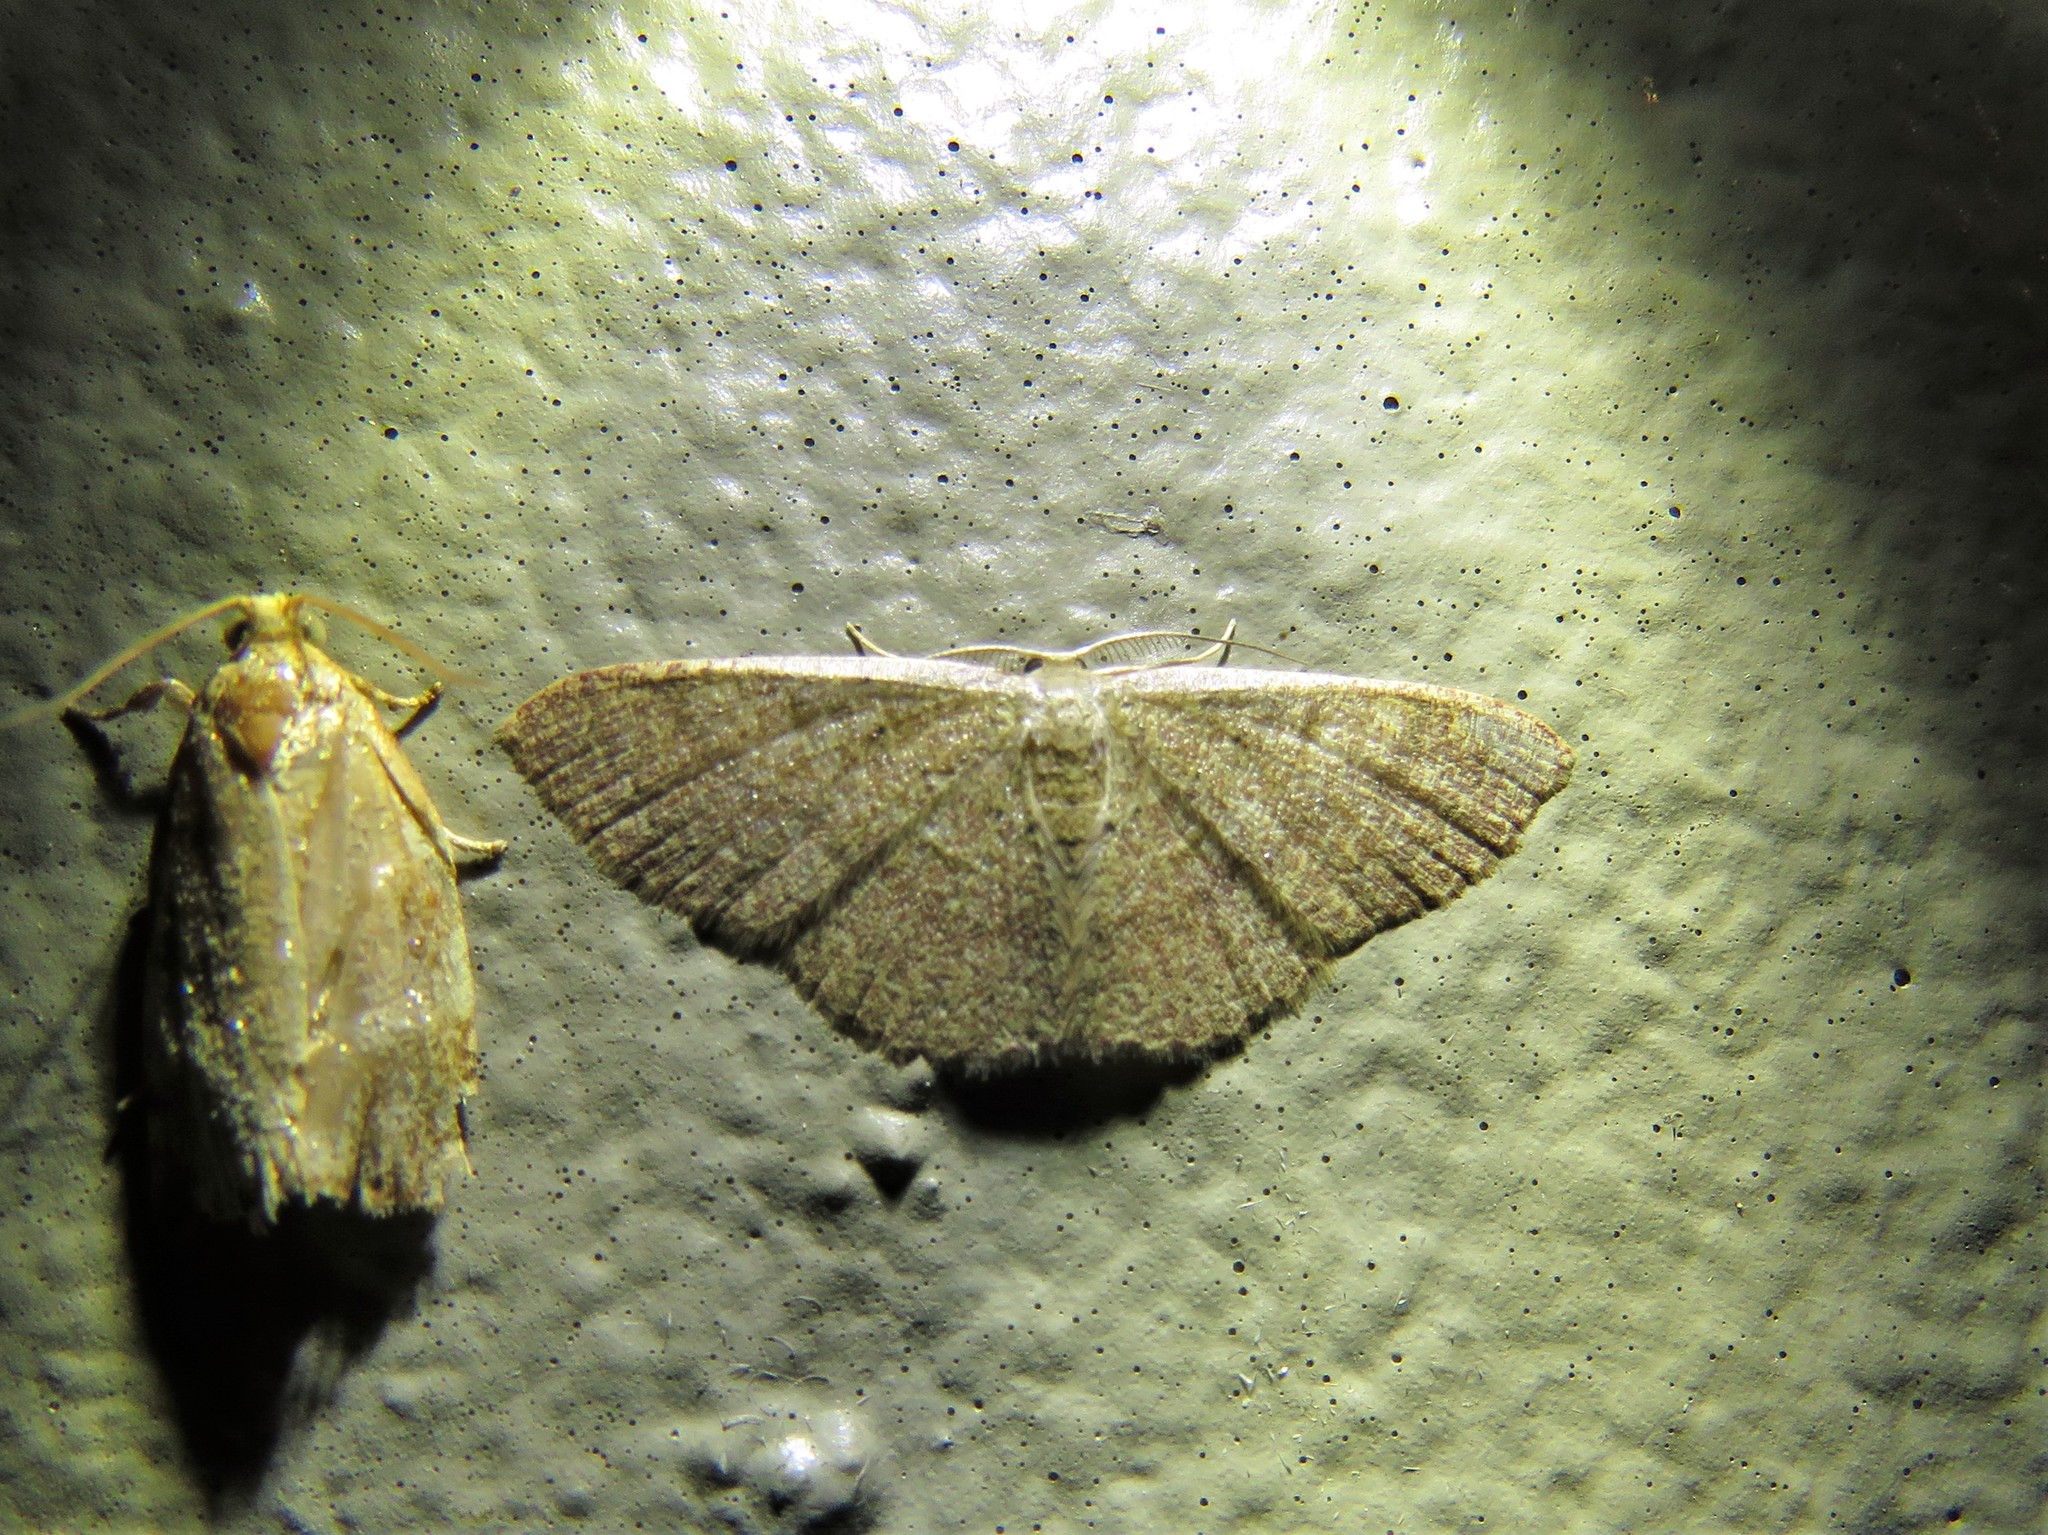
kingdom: Animalia
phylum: Arthropoda
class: Insecta
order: Lepidoptera
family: Geometridae
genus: Pleuroprucha
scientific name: Pleuroprucha insulsaria
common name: Common tan wave
